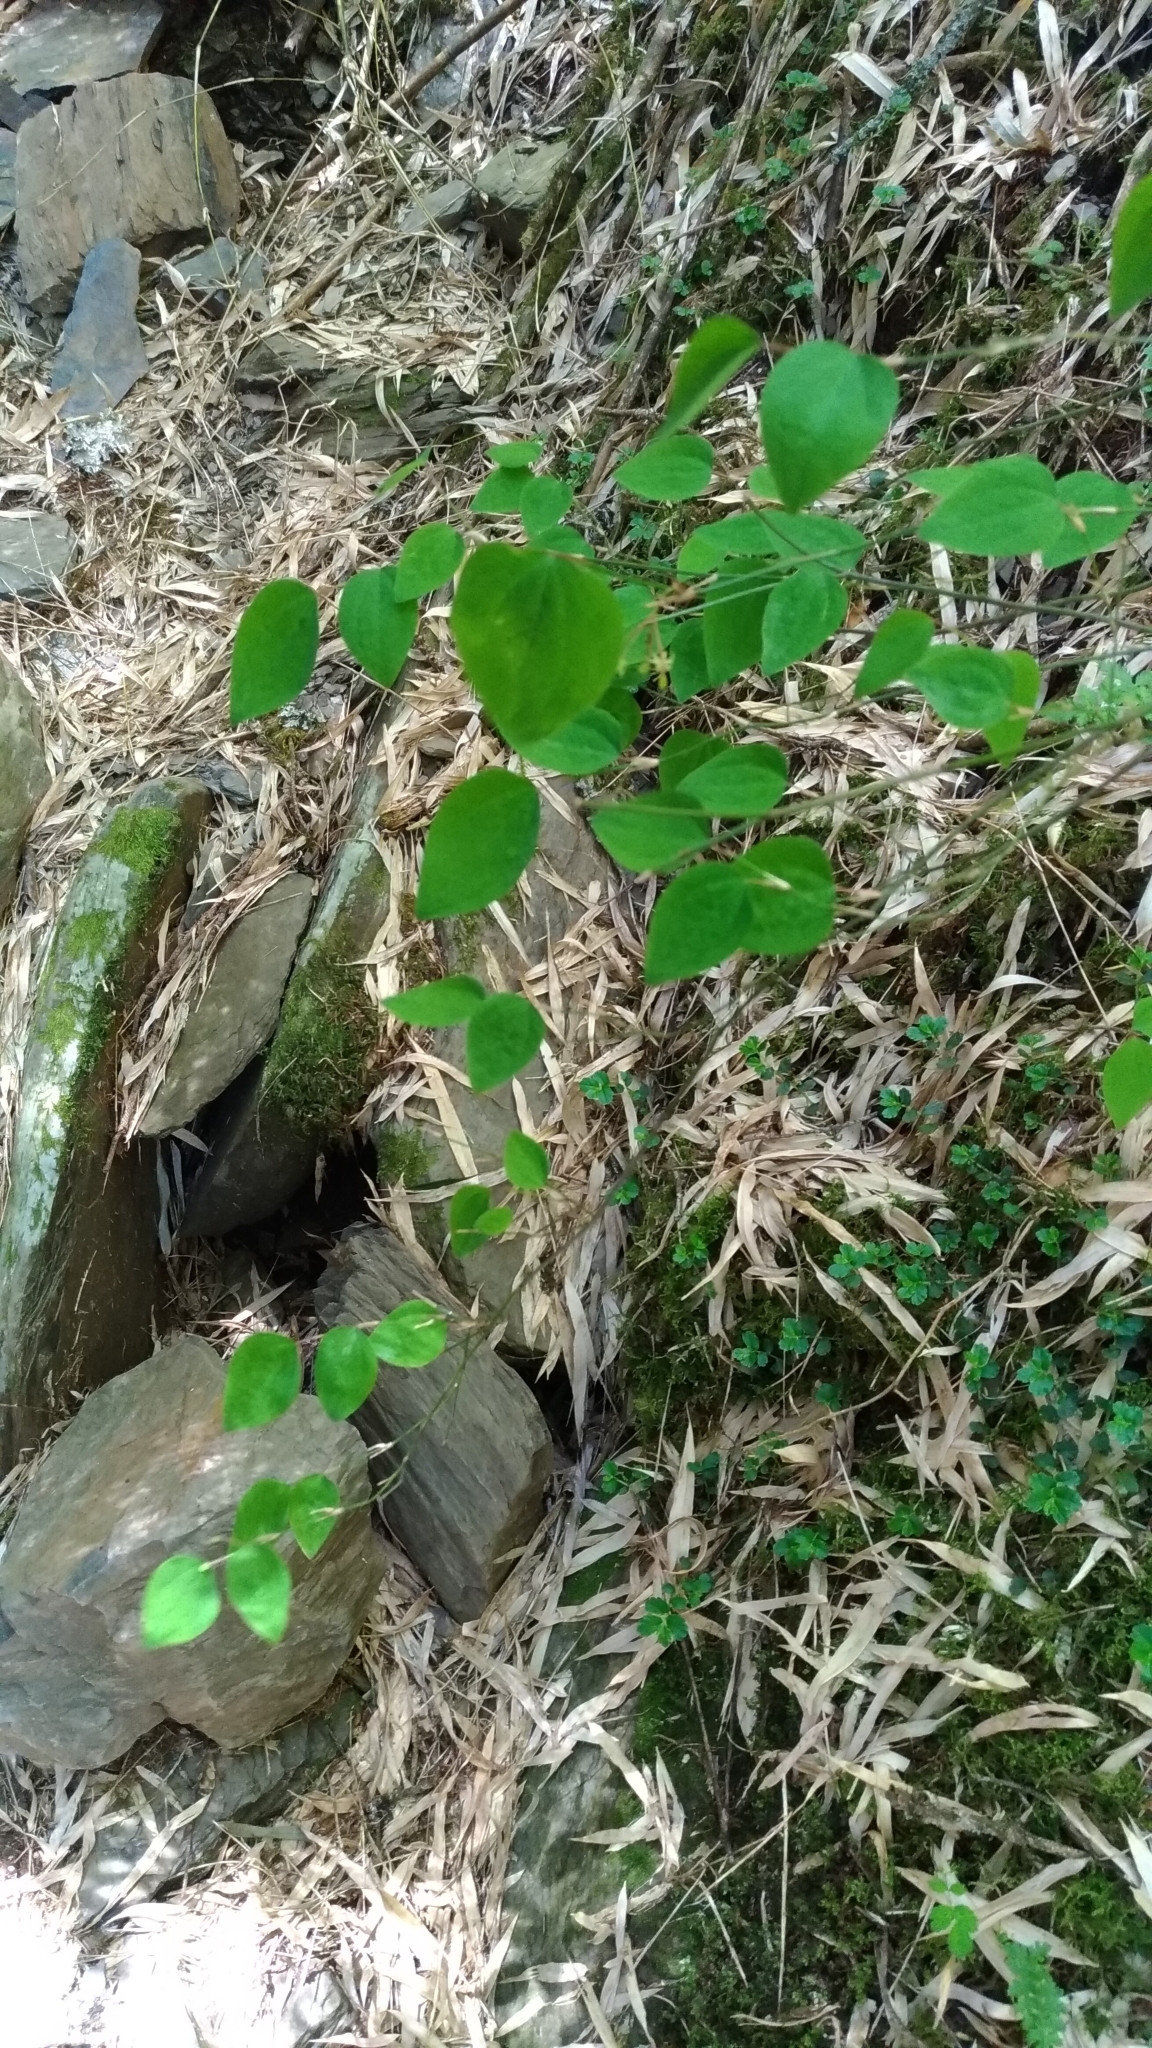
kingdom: Plantae
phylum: Tracheophyta
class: Liliopsida
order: Liliales
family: Smilacaceae
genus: Smilax
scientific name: Smilax vaginata
